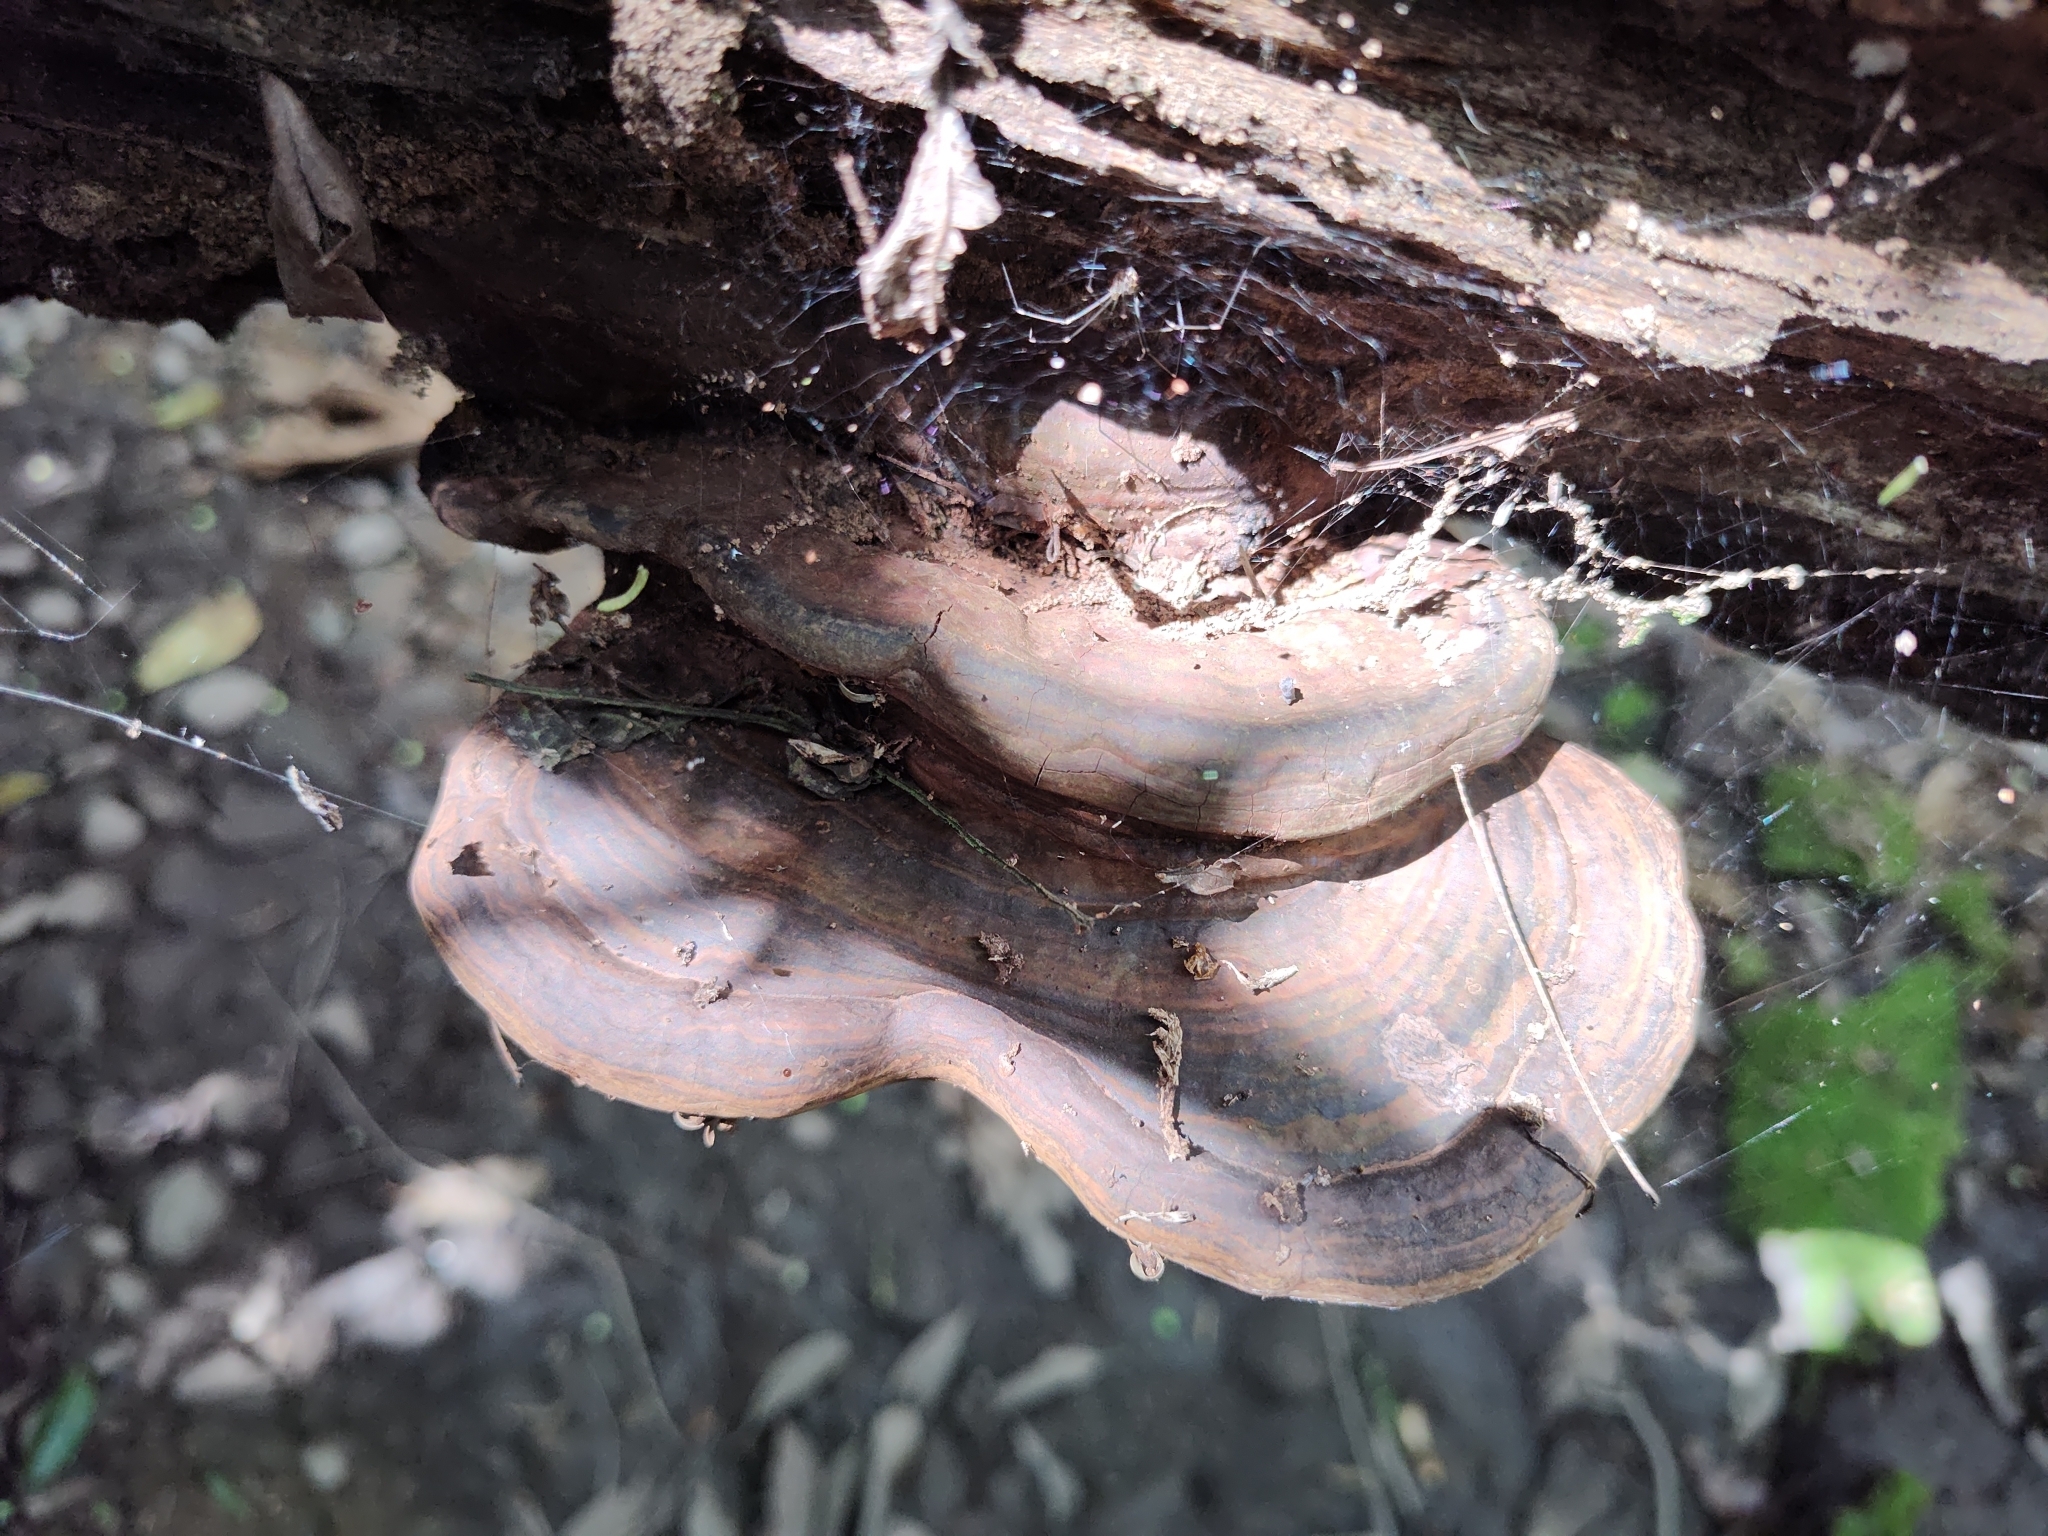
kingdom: Fungi
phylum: Basidiomycota
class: Agaricomycetes
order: Polyporales
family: Polyporaceae
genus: Ganoderma
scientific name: Ganoderma applanatum
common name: Artist's bracket
